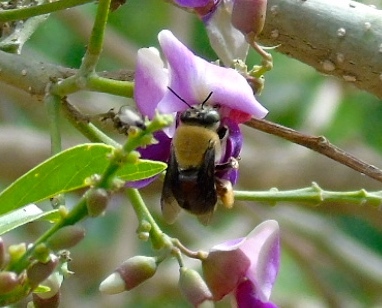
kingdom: Animalia
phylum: Arthropoda
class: Insecta
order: Hymenoptera
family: Apidae
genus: Centris
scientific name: Centris varia
